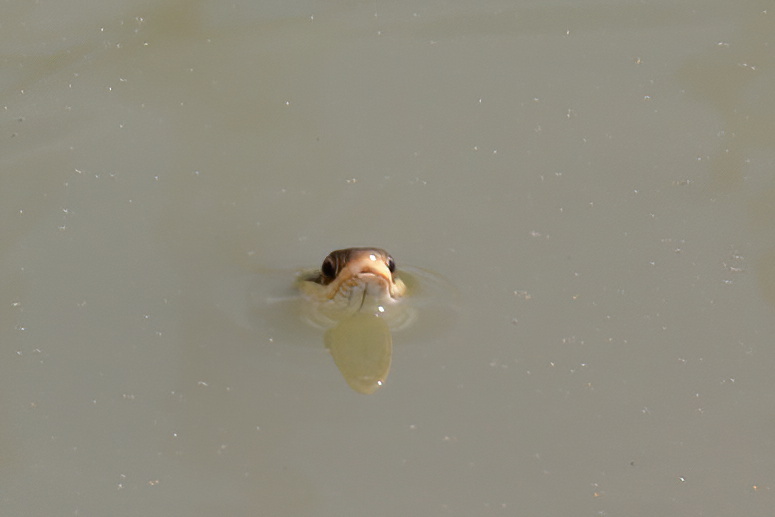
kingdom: Animalia
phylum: Chordata
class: Squamata
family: Colubridae
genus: Thamnophis
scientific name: Thamnophis proximus
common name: Western ribbon snake
